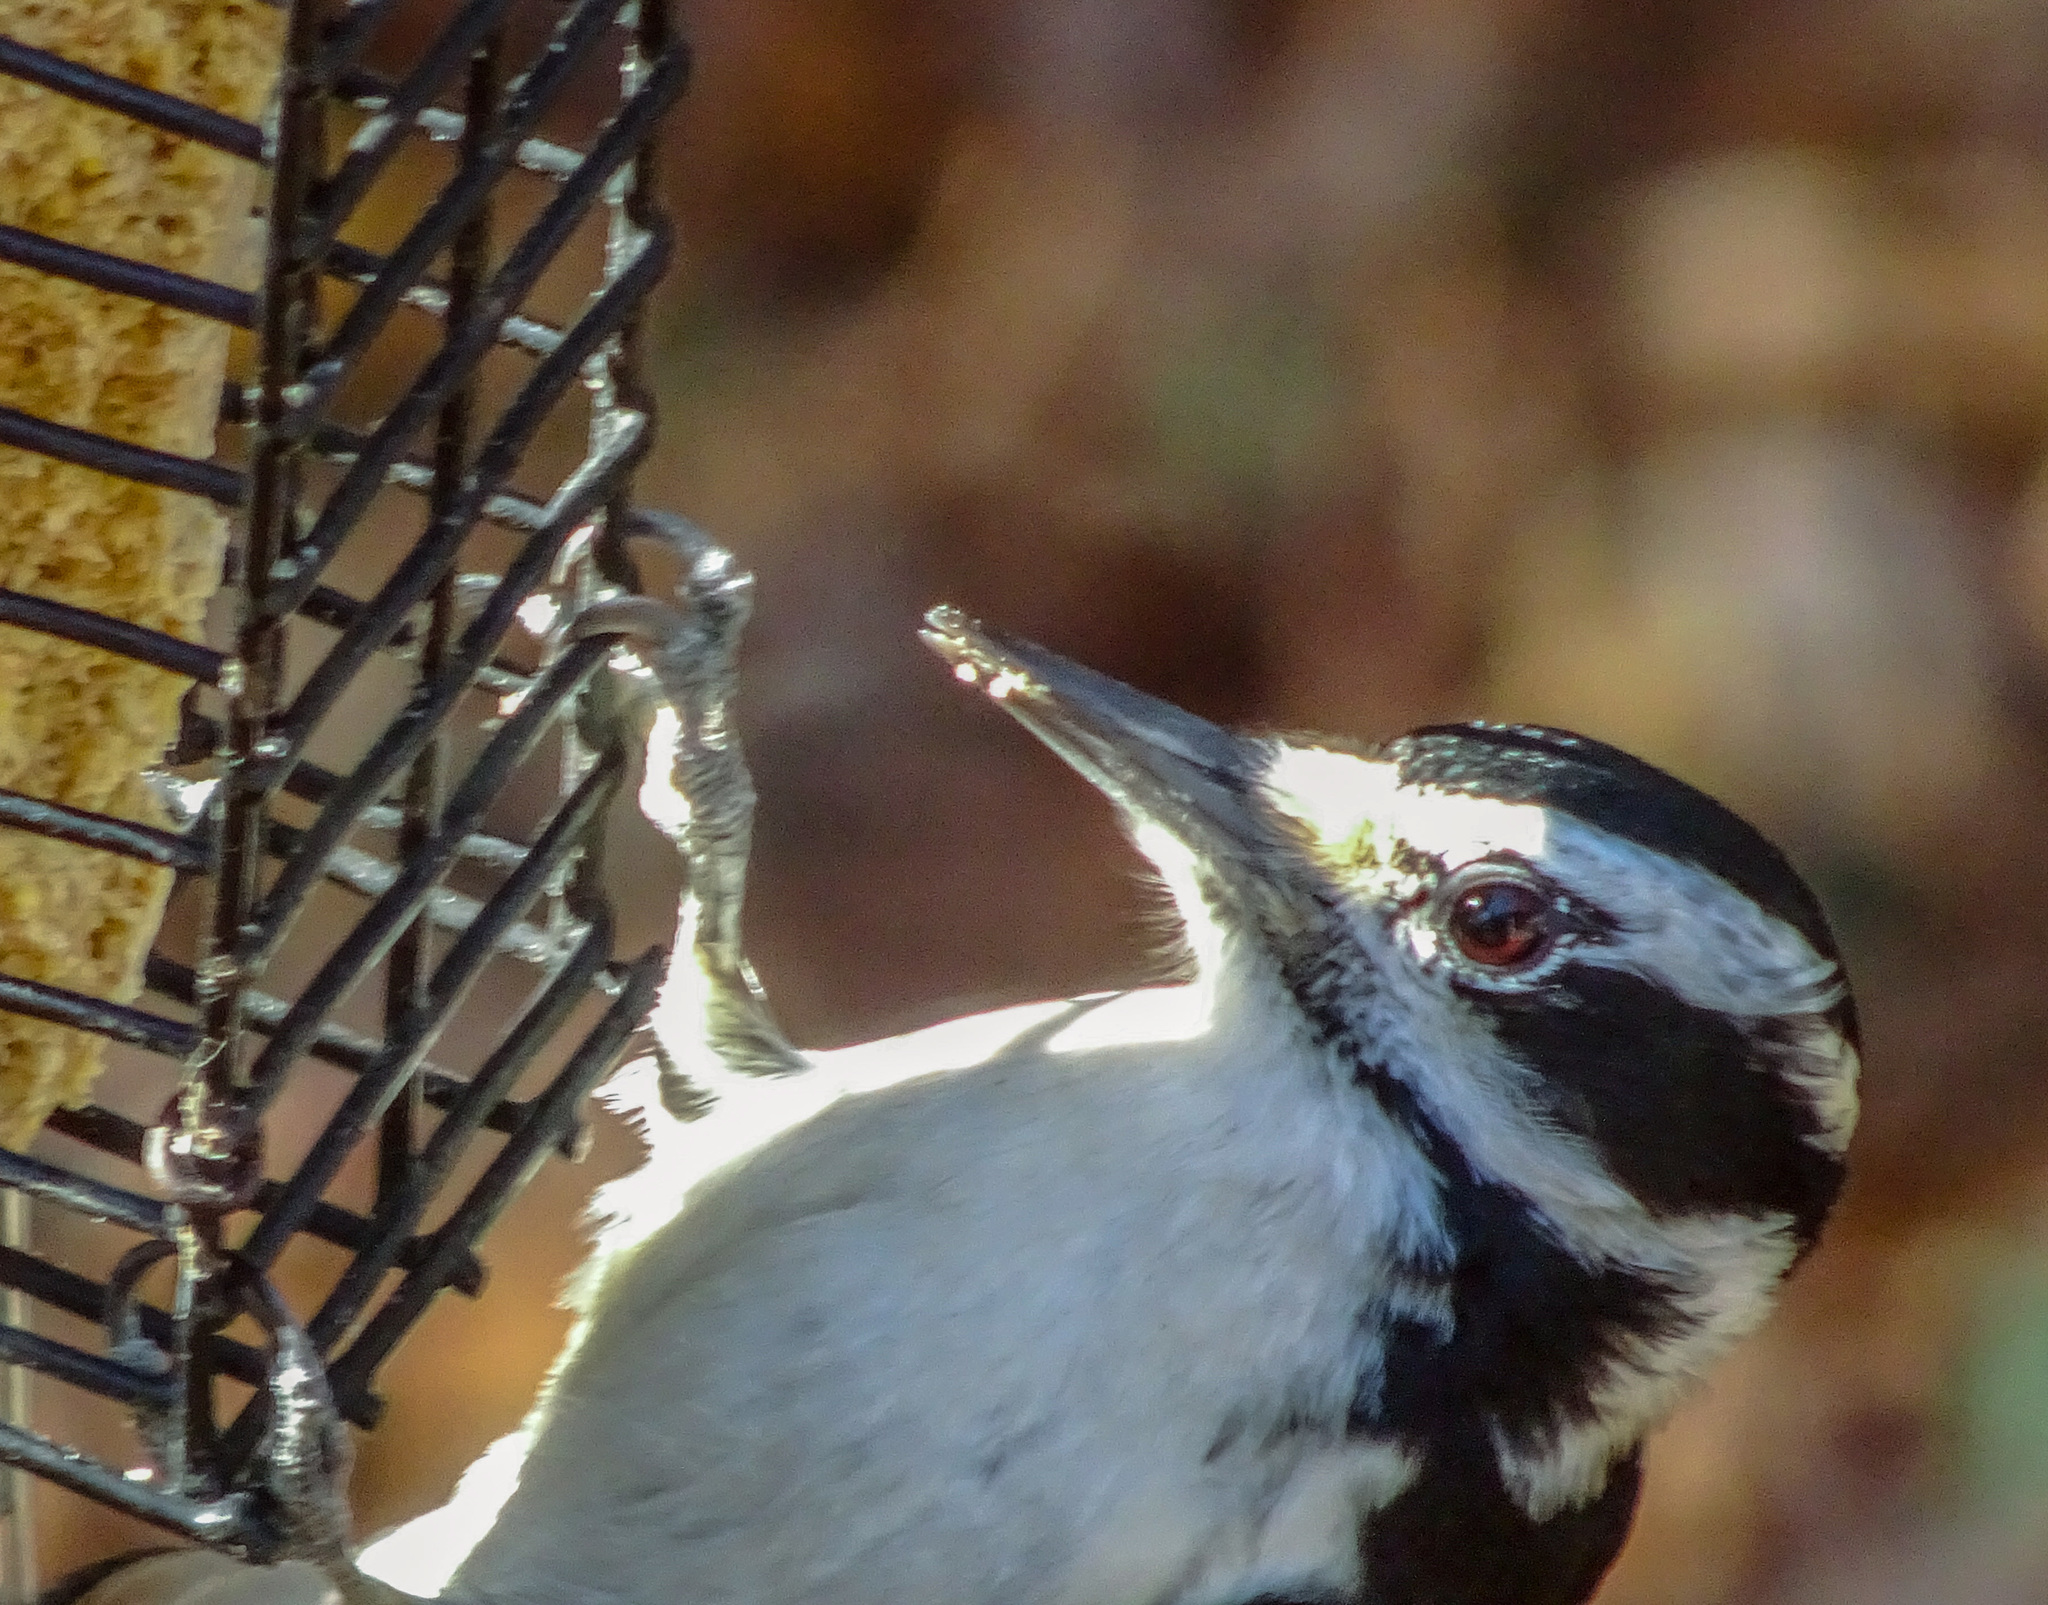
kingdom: Animalia
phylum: Chordata
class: Aves
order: Piciformes
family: Picidae
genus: Leuconotopicus
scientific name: Leuconotopicus villosus
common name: Hairy woodpecker
